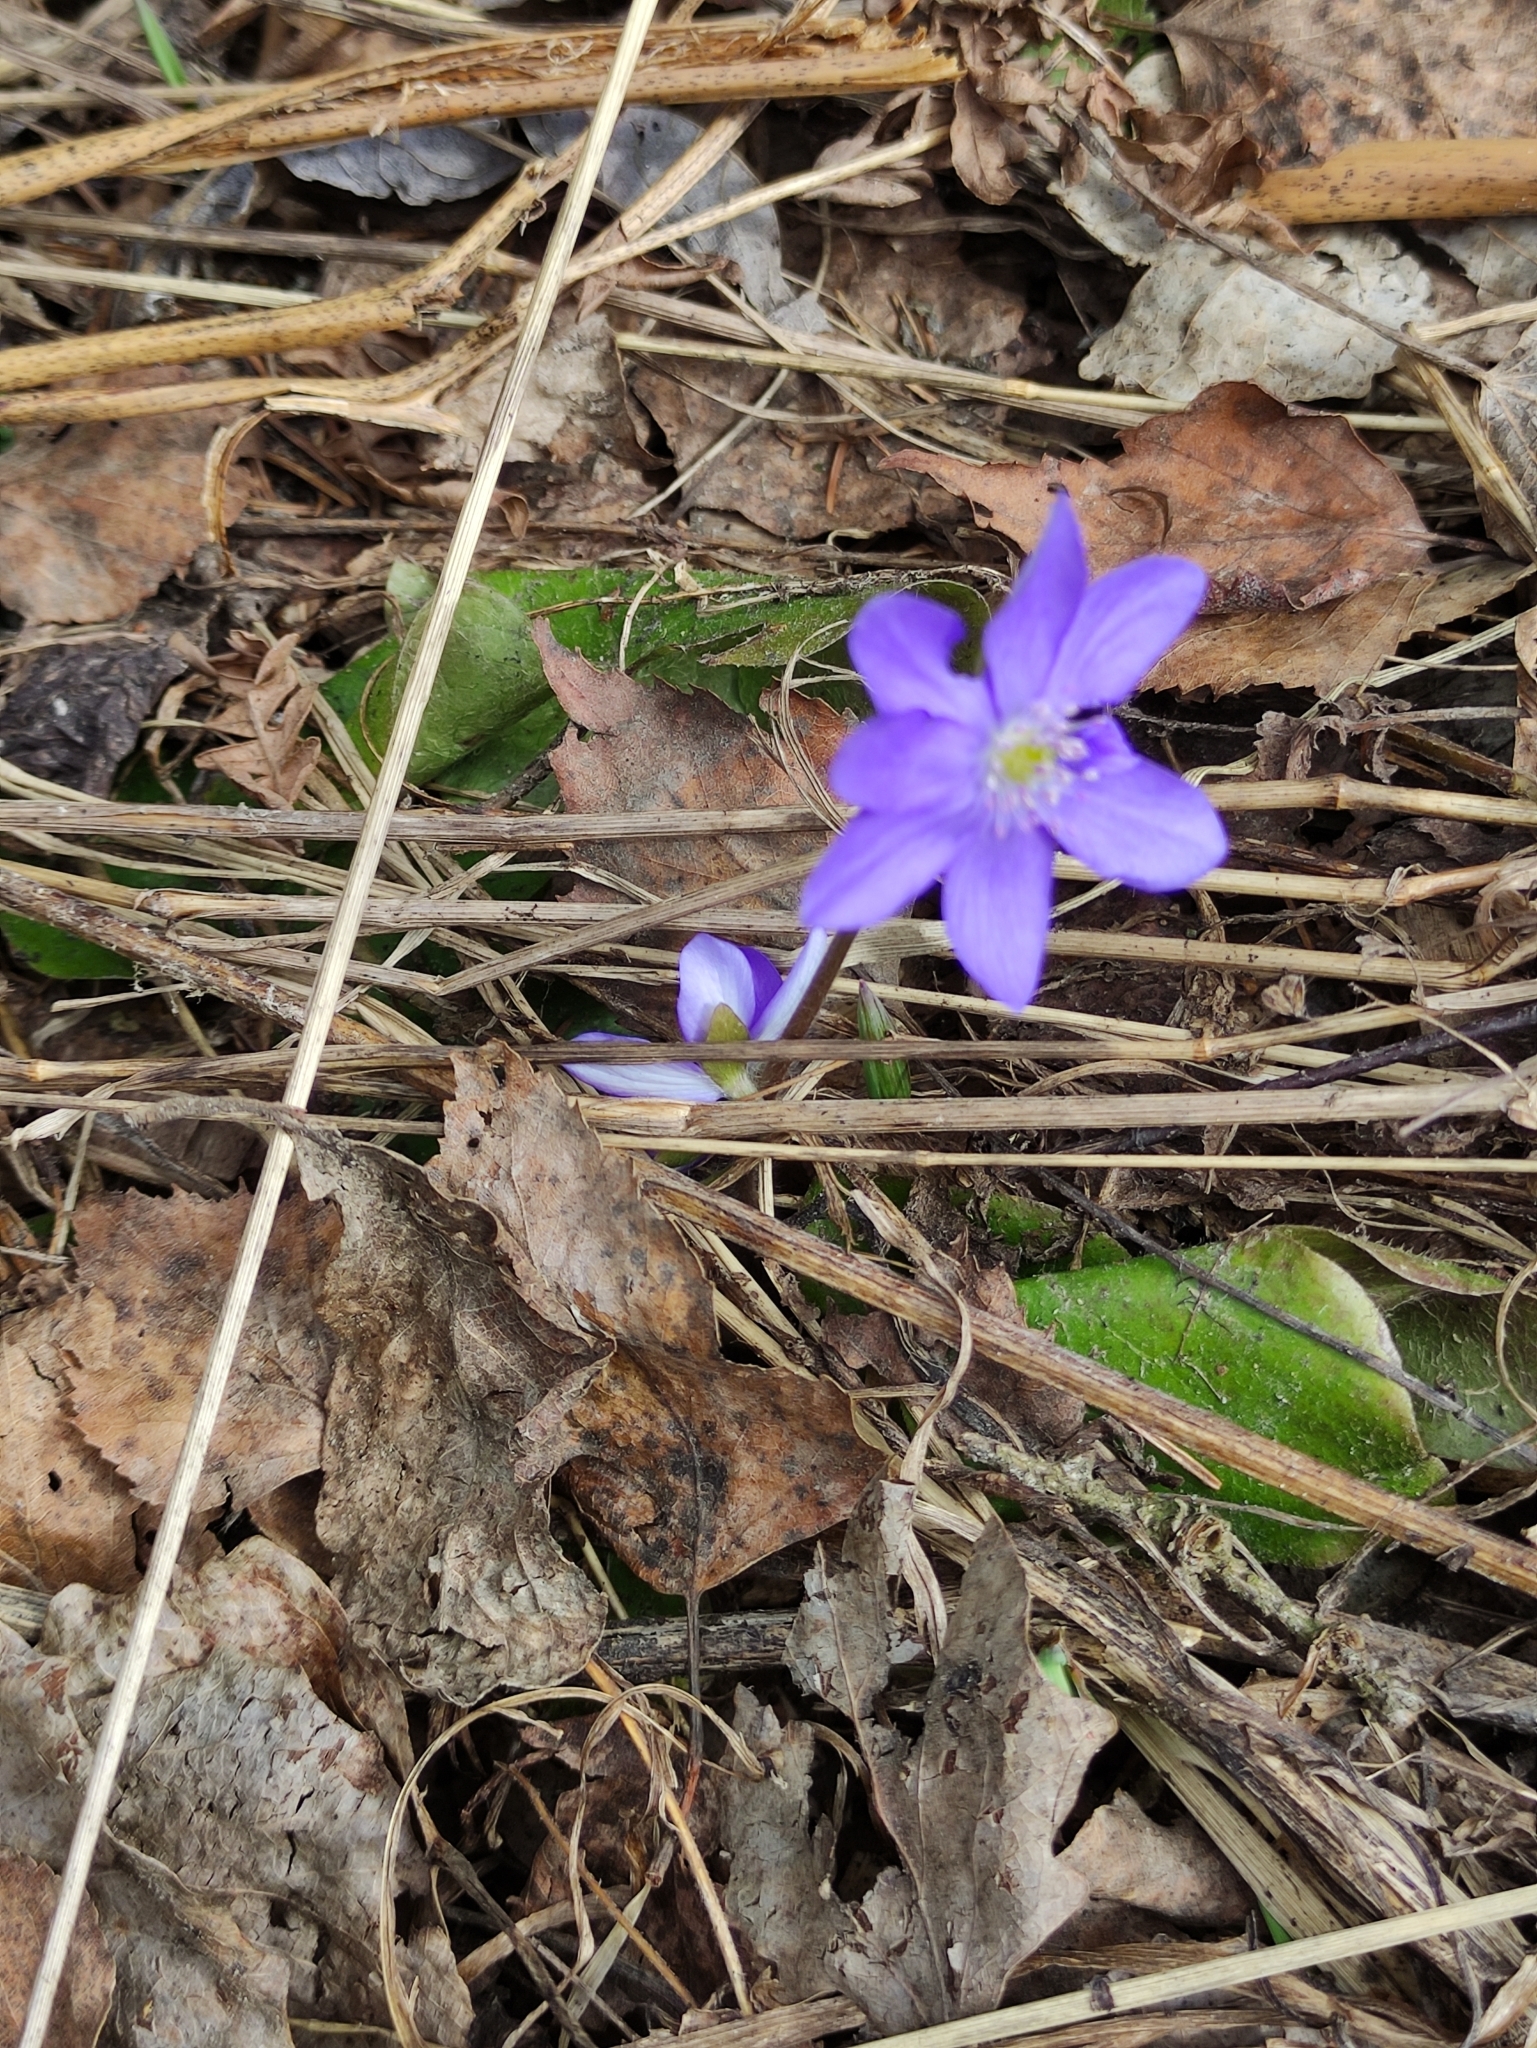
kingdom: Plantae
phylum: Tracheophyta
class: Magnoliopsida
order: Ranunculales
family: Ranunculaceae
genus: Hepatica
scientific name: Hepatica nobilis
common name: Liverleaf
